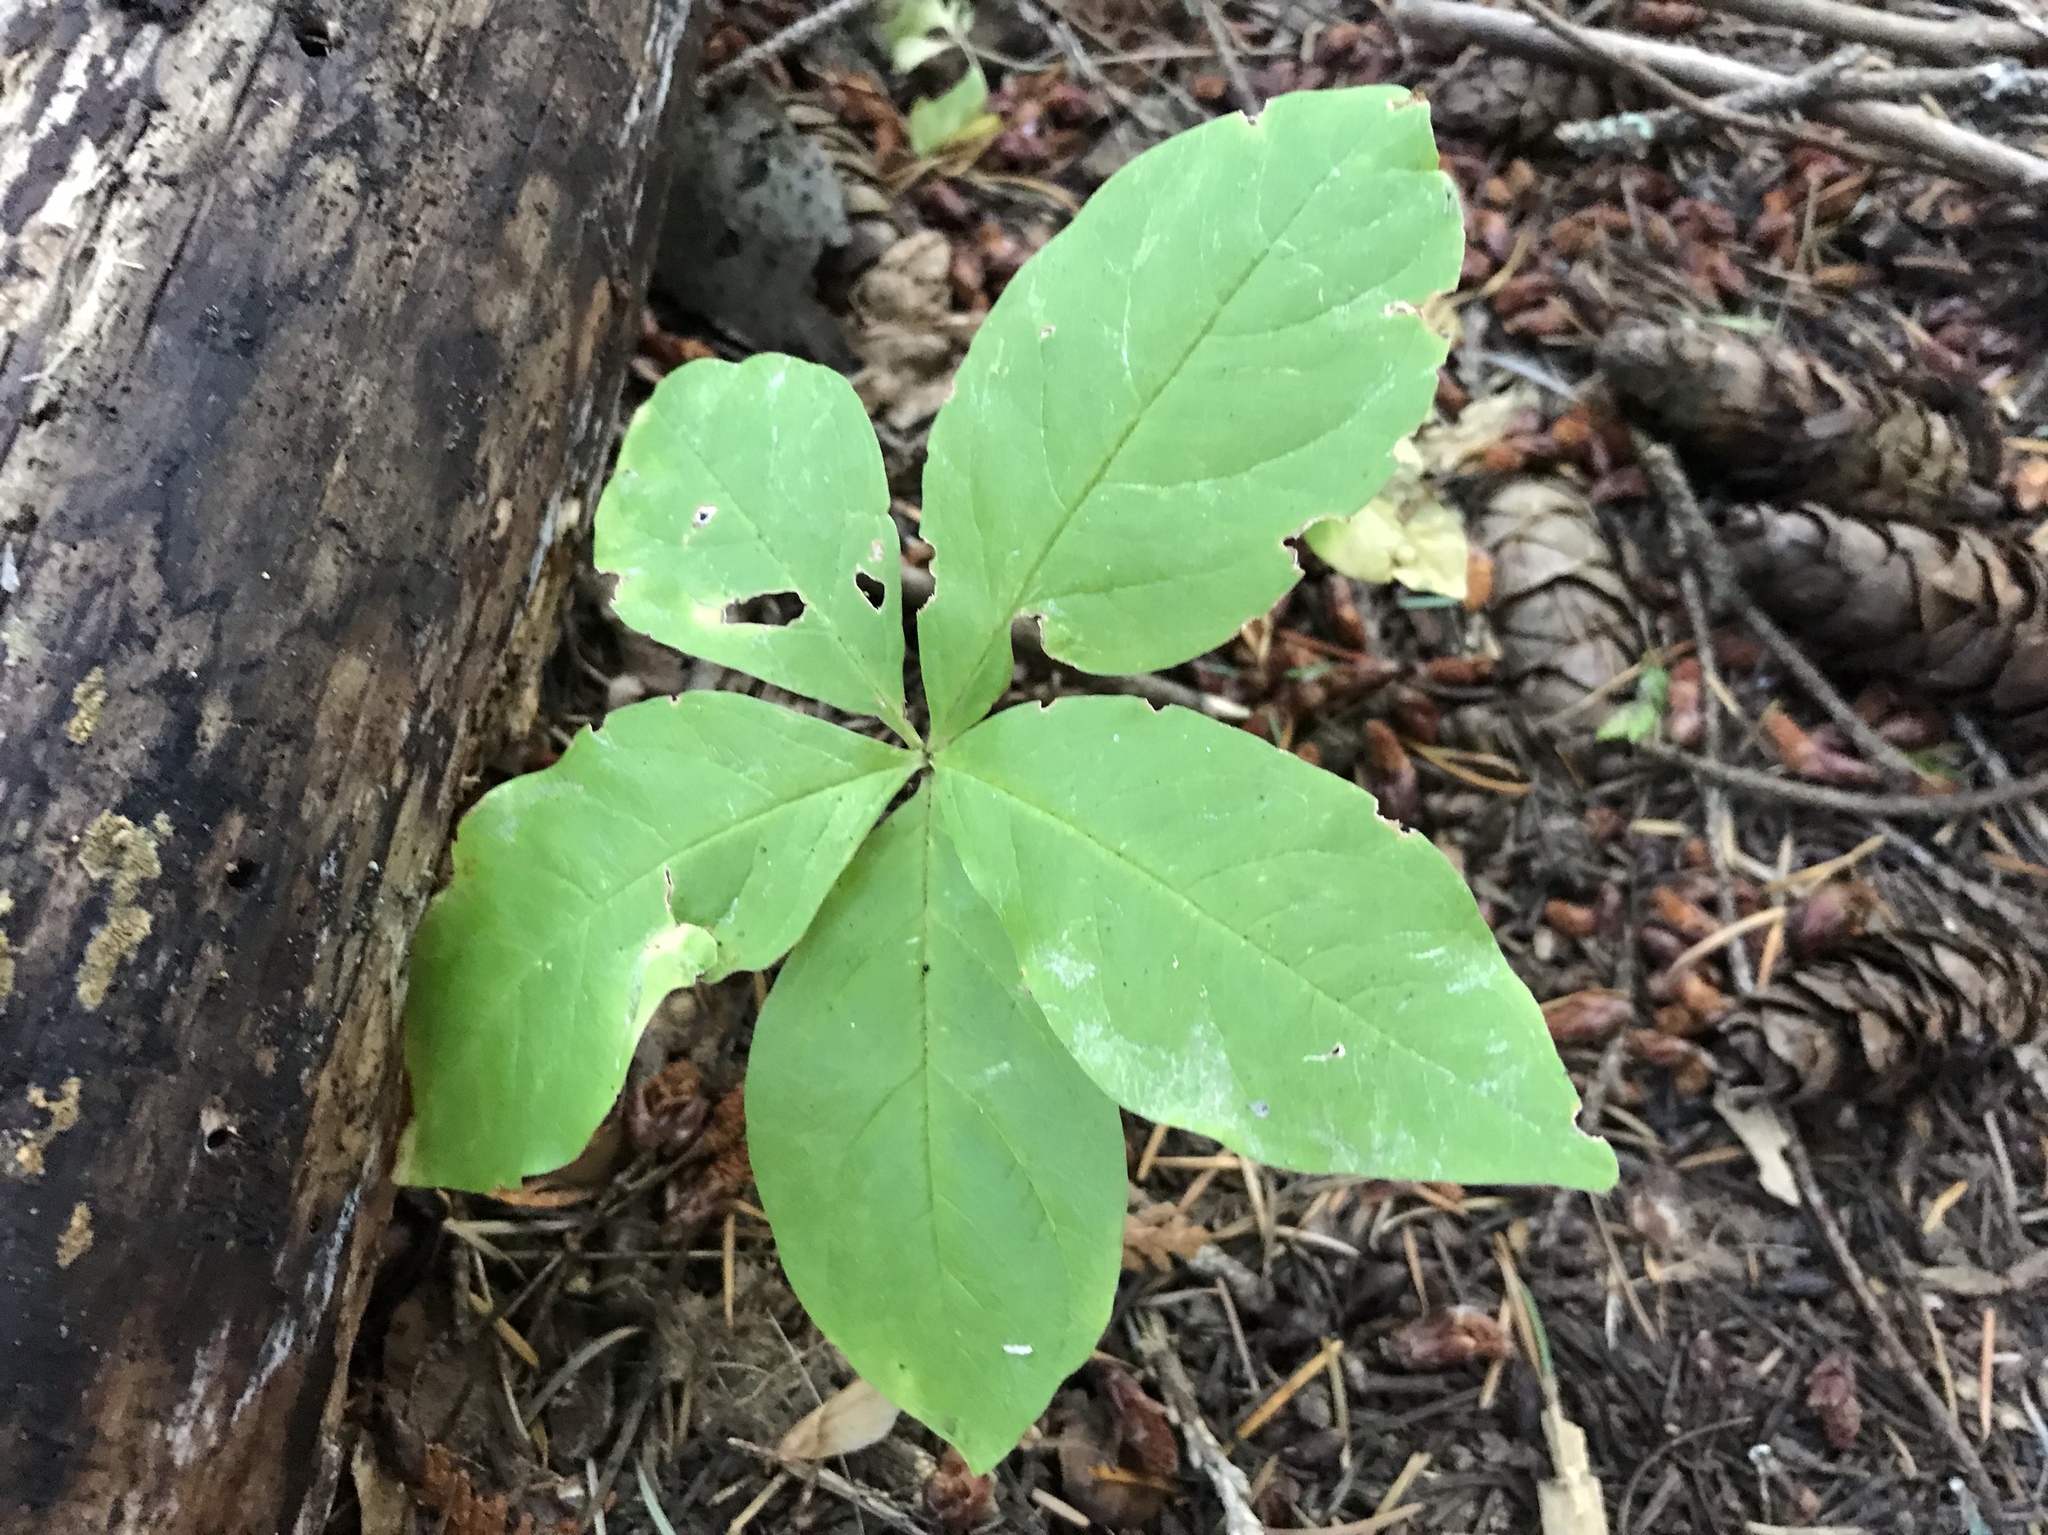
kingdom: Plantae
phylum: Tracheophyta
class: Magnoliopsida
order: Ericales
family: Primulaceae
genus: Lysimachia
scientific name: Lysimachia latifolia
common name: Pacific starflower
